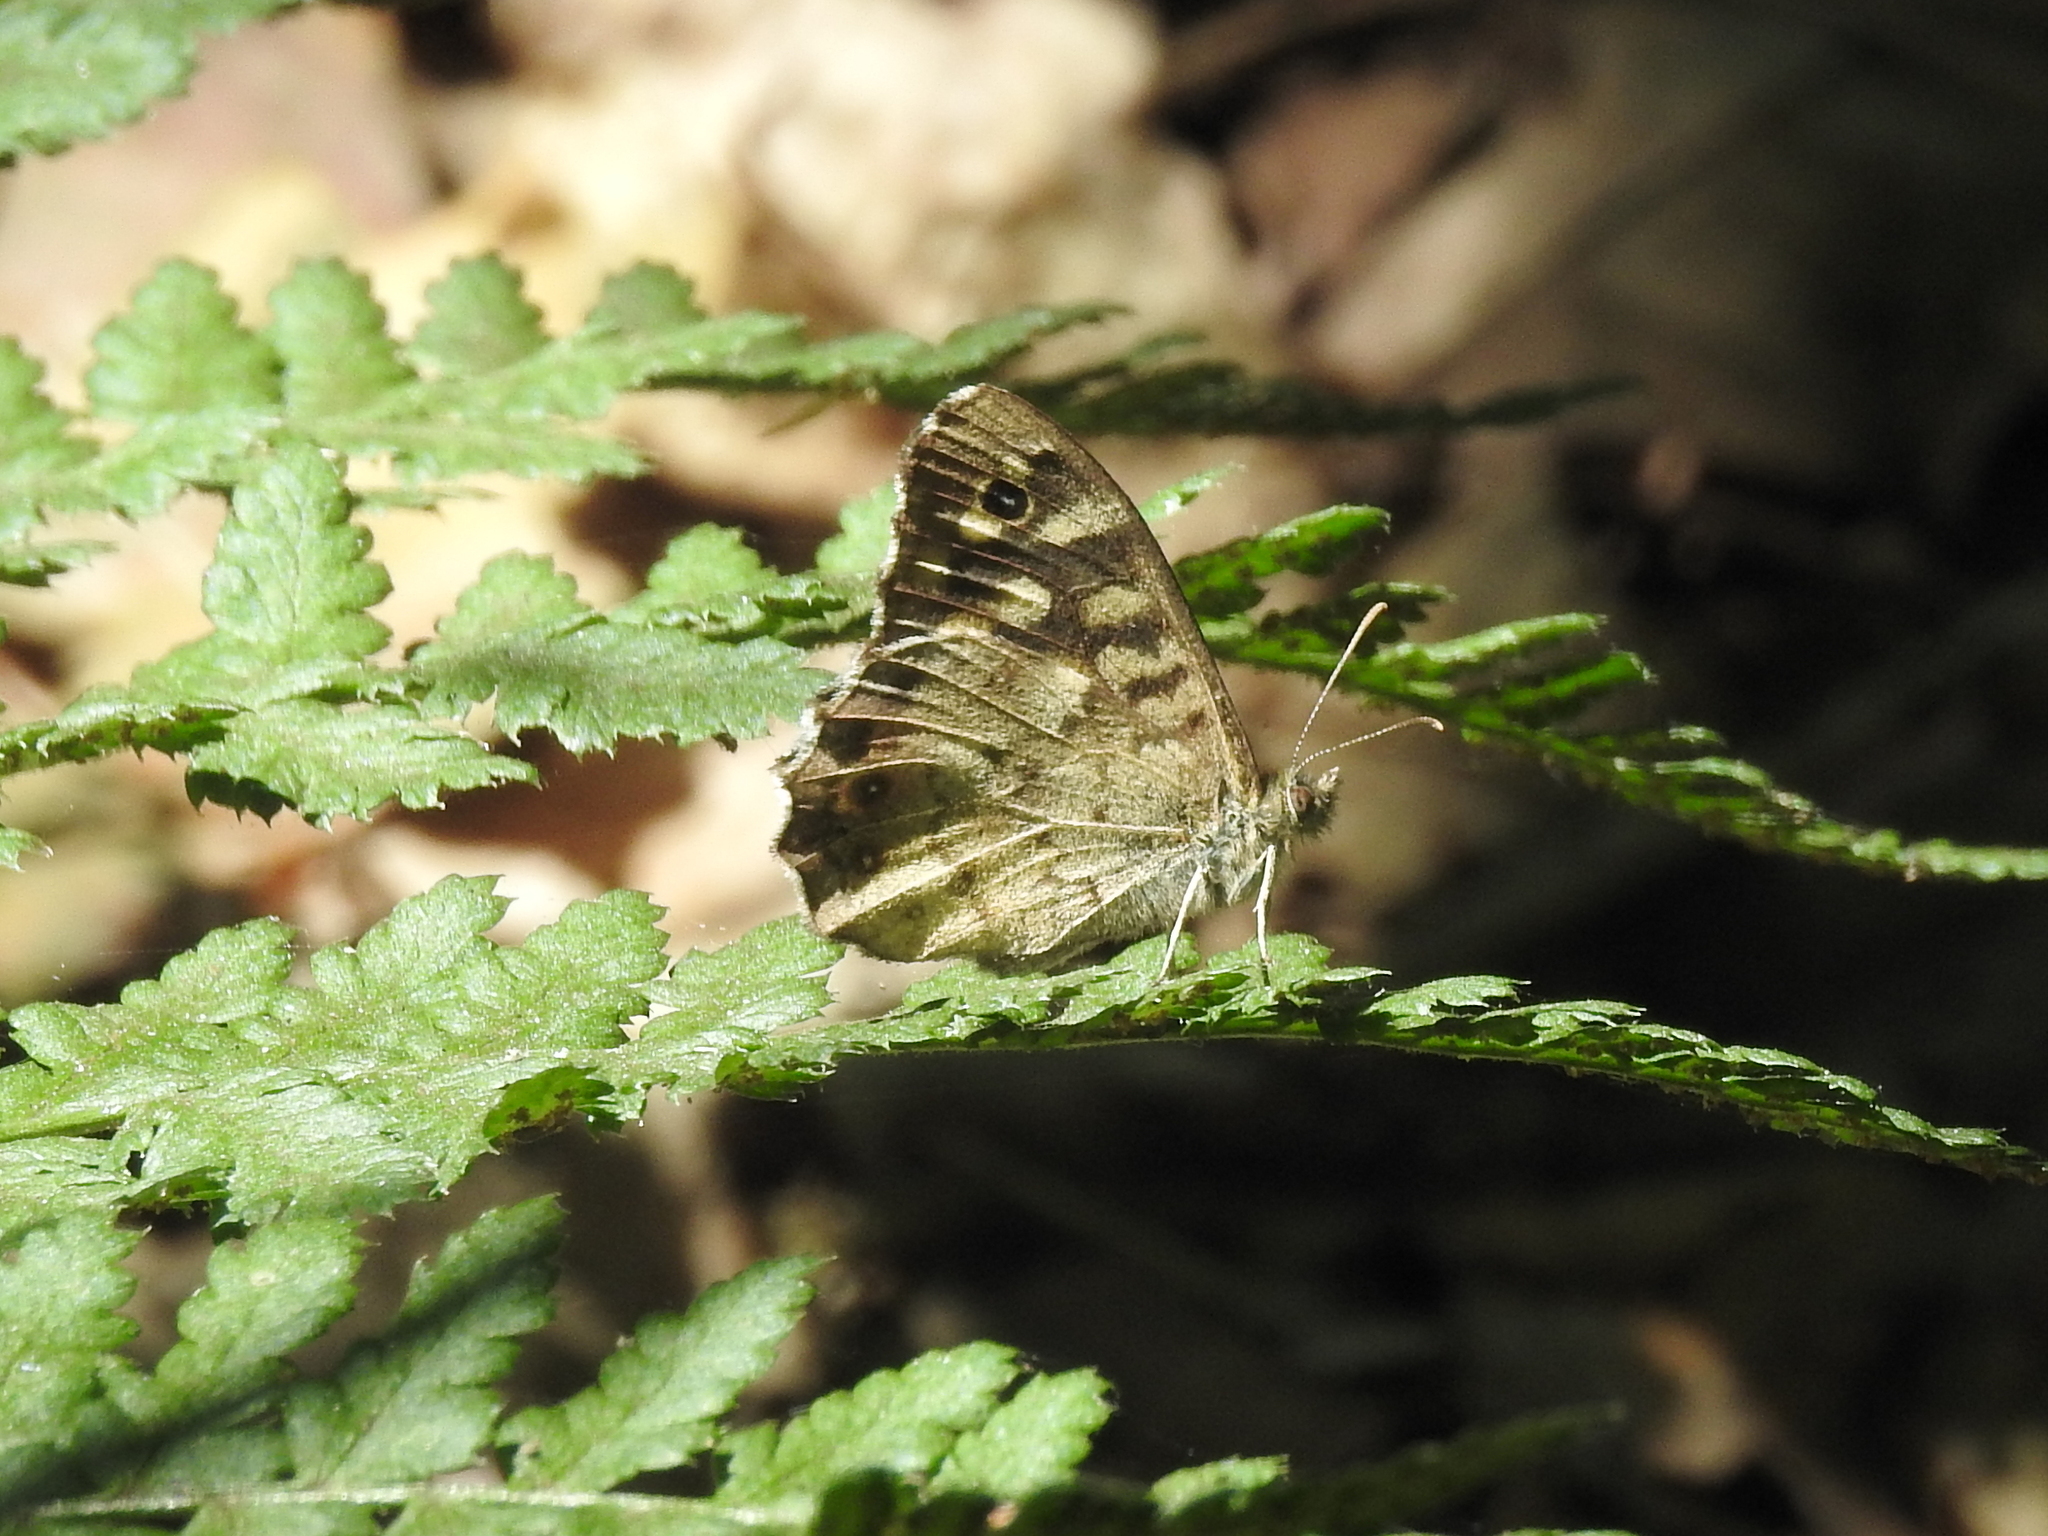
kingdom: Animalia
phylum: Arthropoda
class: Insecta
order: Lepidoptera
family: Nymphalidae
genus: Pararge
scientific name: Pararge aegeria
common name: Speckled wood
